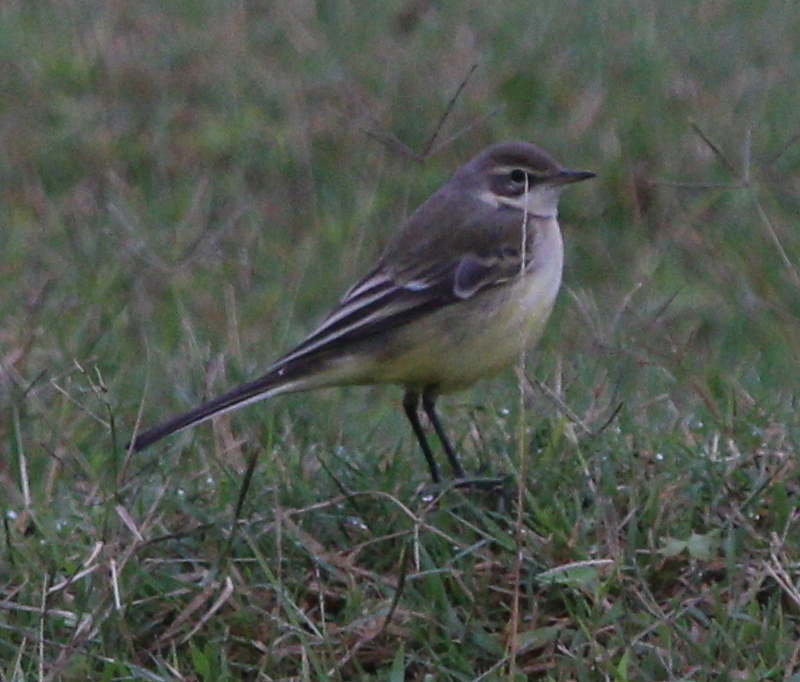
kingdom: Animalia
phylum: Chordata
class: Aves
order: Passeriformes
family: Motacillidae
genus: Motacilla
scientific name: Motacilla flava
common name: Western yellow wagtail
